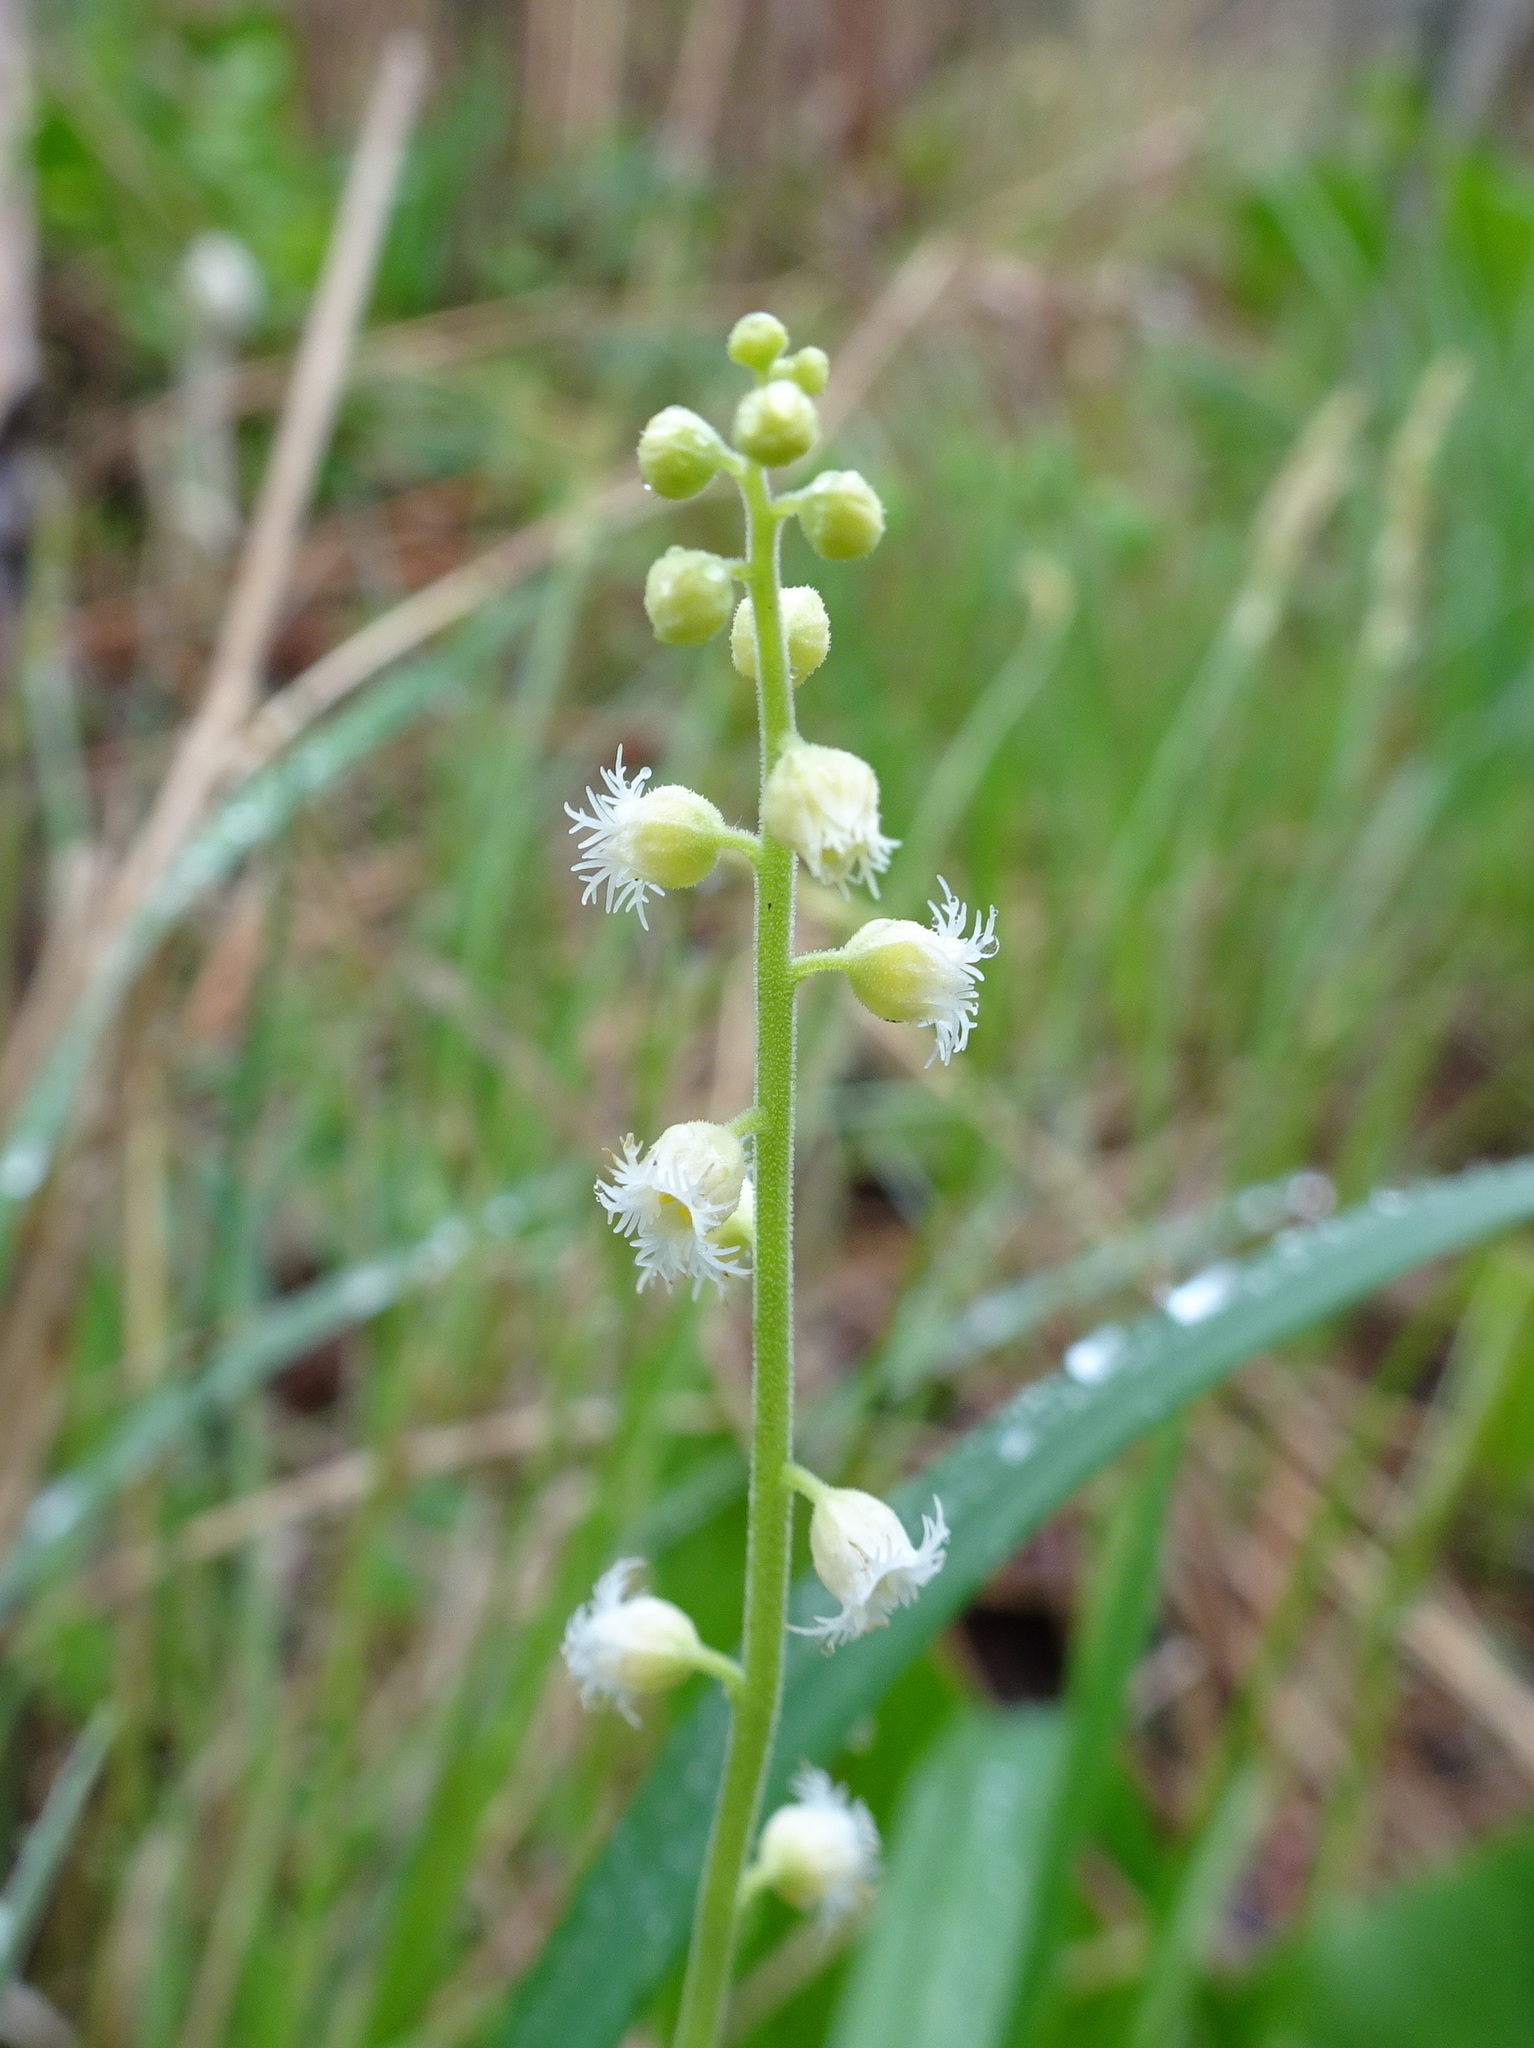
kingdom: Plantae
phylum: Tracheophyta
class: Magnoliopsida
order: Saxifragales
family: Saxifragaceae
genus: Mitella
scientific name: Mitella diphylla
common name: Coolwort
